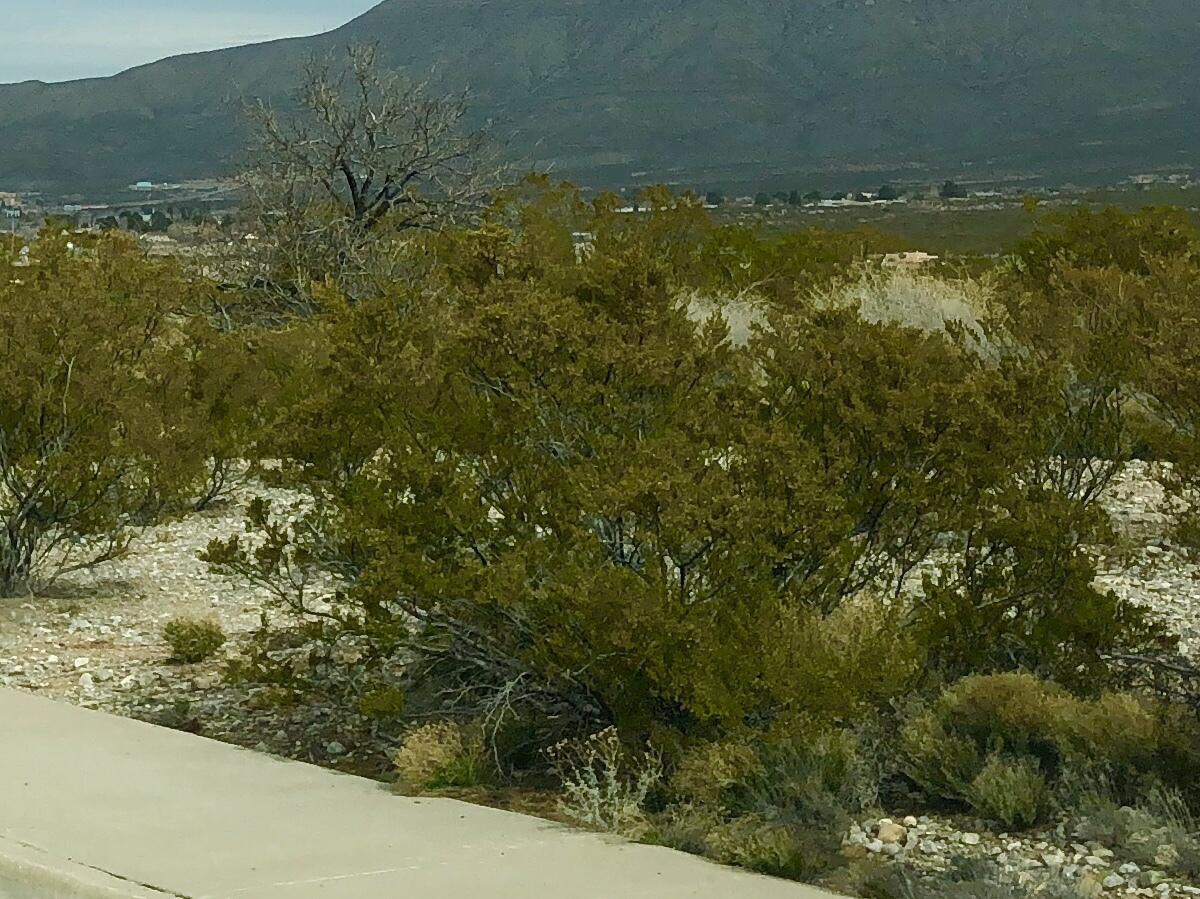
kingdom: Plantae
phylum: Tracheophyta
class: Magnoliopsida
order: Zygophyllales
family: Zygophyllaceae
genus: Larrea
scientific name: Larrea tridentata
